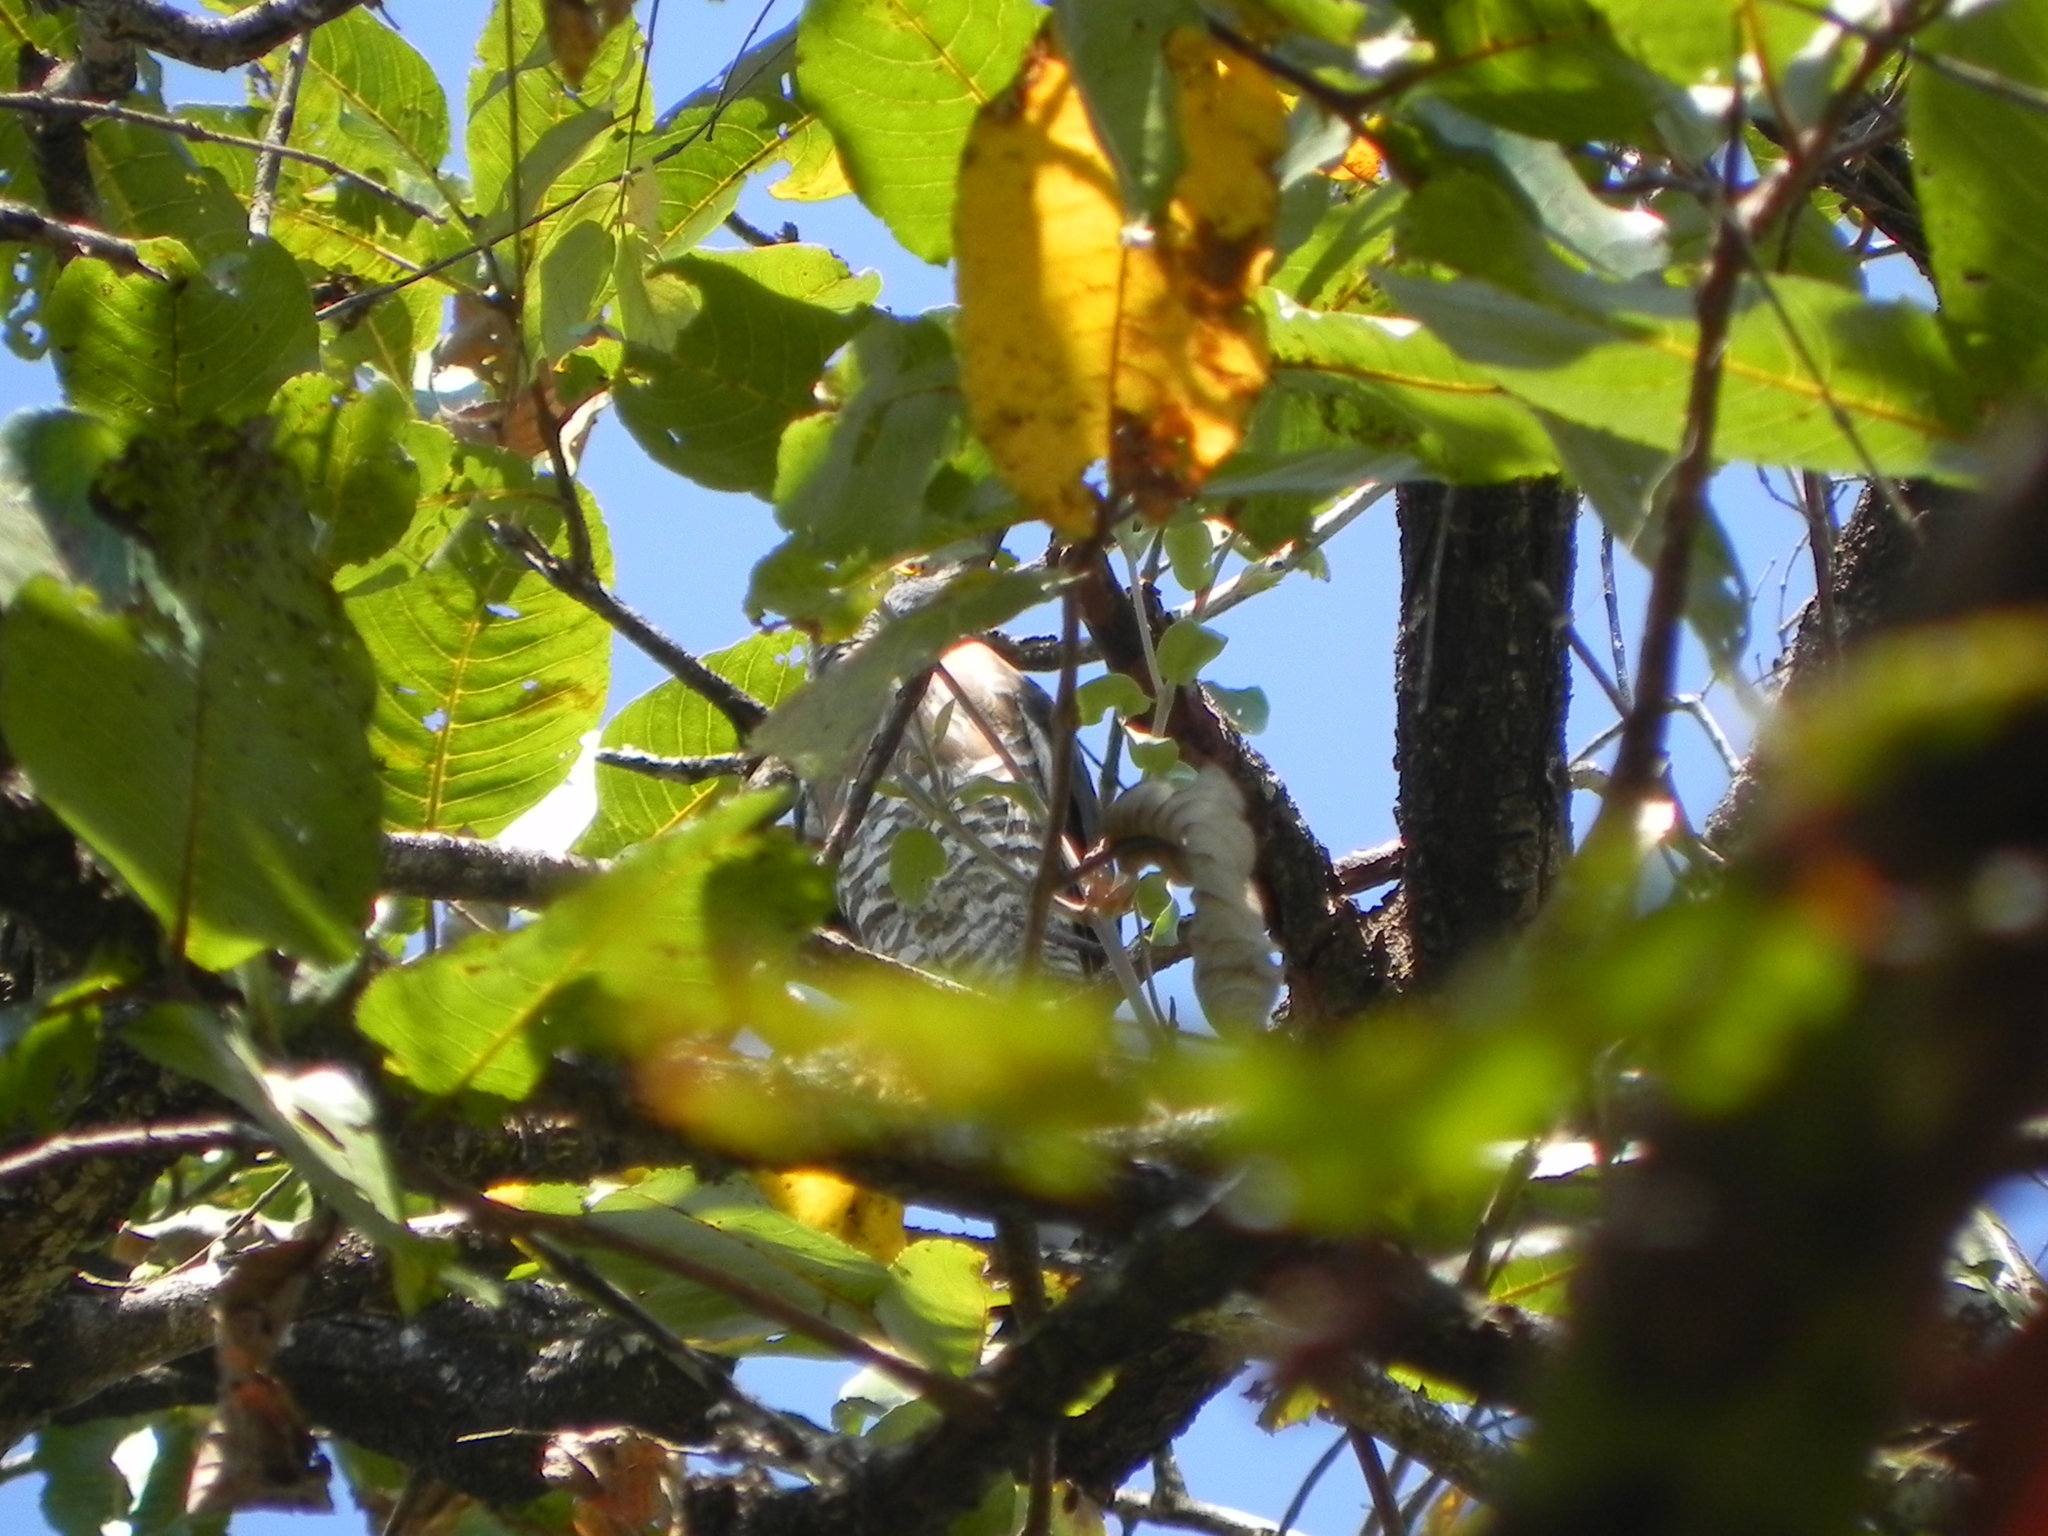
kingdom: Animalia
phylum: Chordata
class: Aves
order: Accipitriformes
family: Accipitridae
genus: Accipiter
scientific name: Accipiter trivirgatus
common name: Crested goshawk
